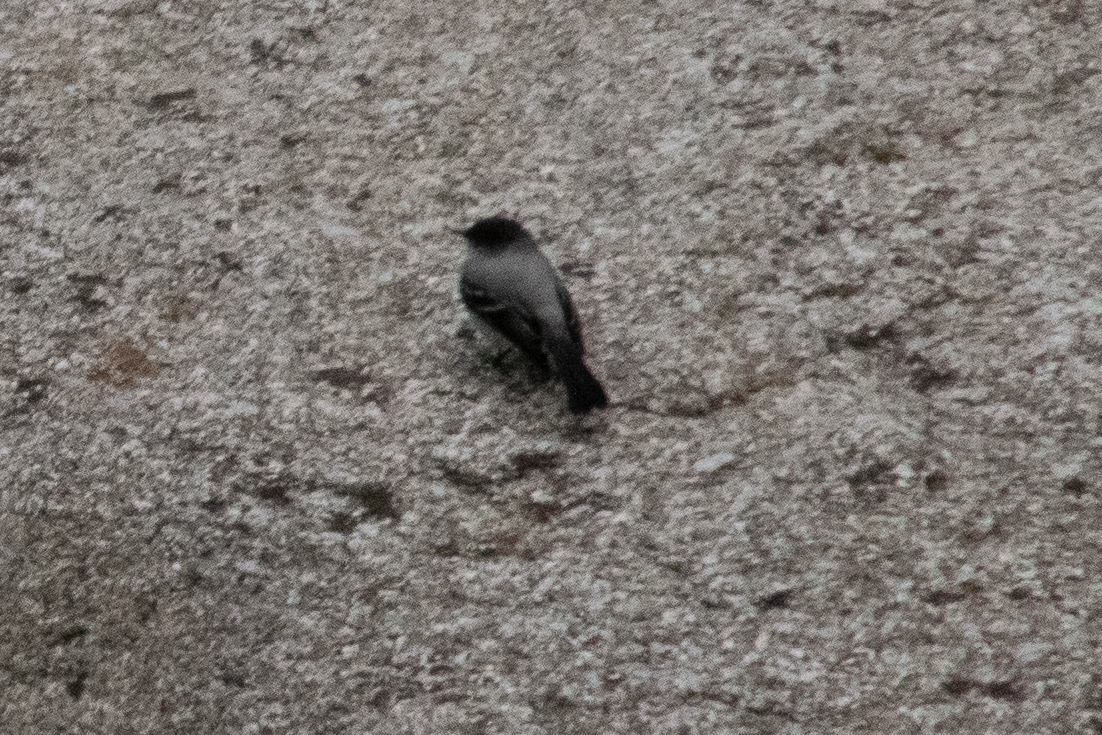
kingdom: Animalia
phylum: Chordata
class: Aves
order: Passeriformes
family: Tyrannidae
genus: Serpophaga
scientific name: Serpophaga cinerea
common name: Torrent tyrannulet
